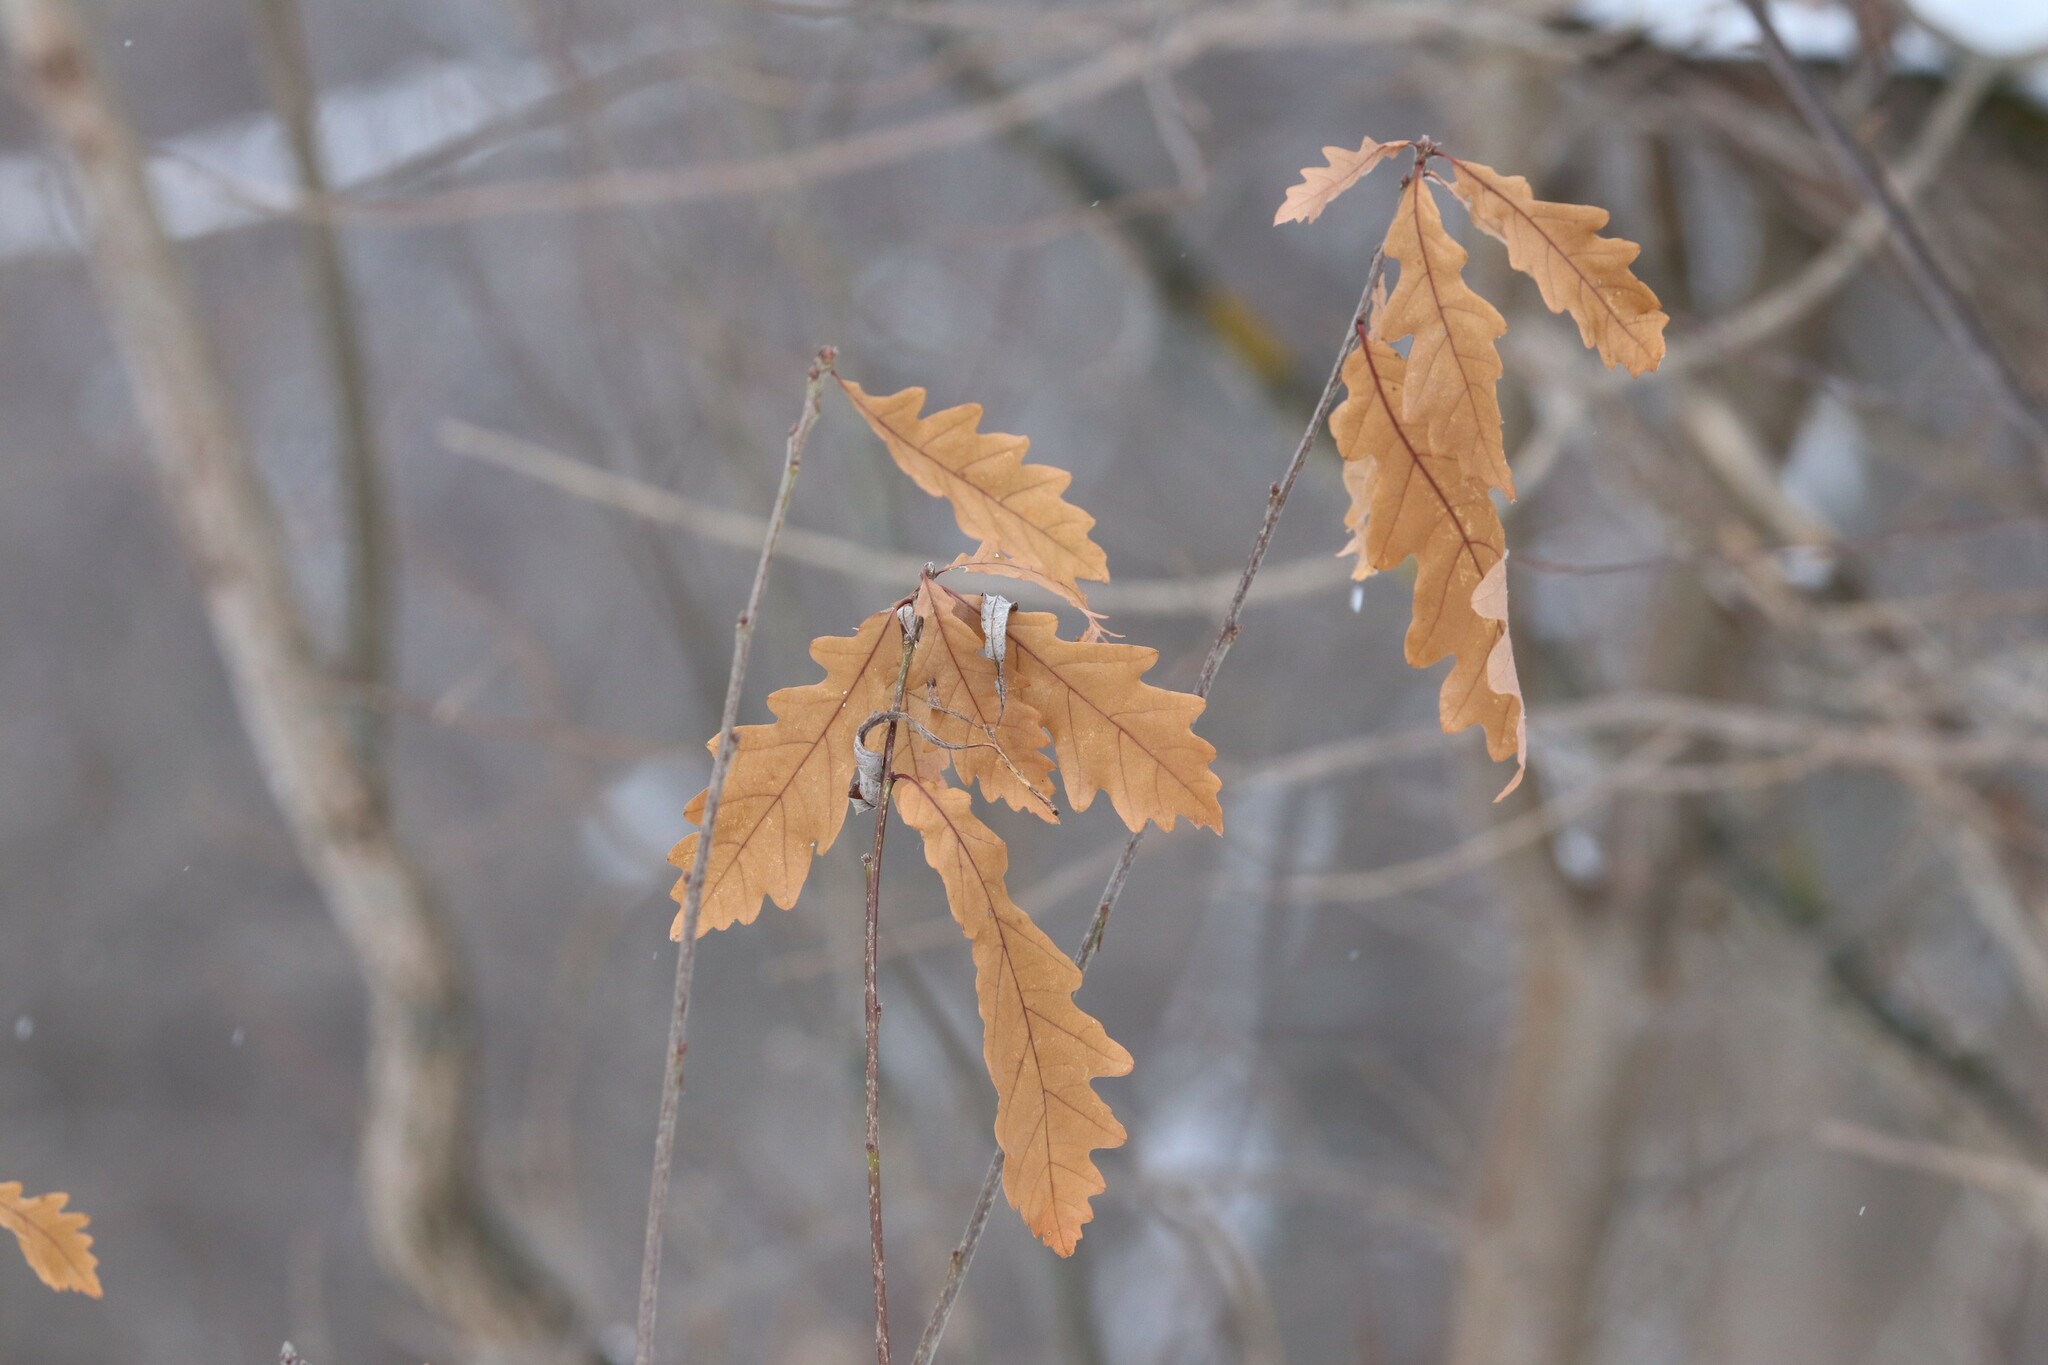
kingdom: Plantae
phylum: Tracheophyta
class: Magnoliopsida
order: Fagales
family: Fagaceae
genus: Quercus
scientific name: Quercus robur
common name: Pedunculate oak
